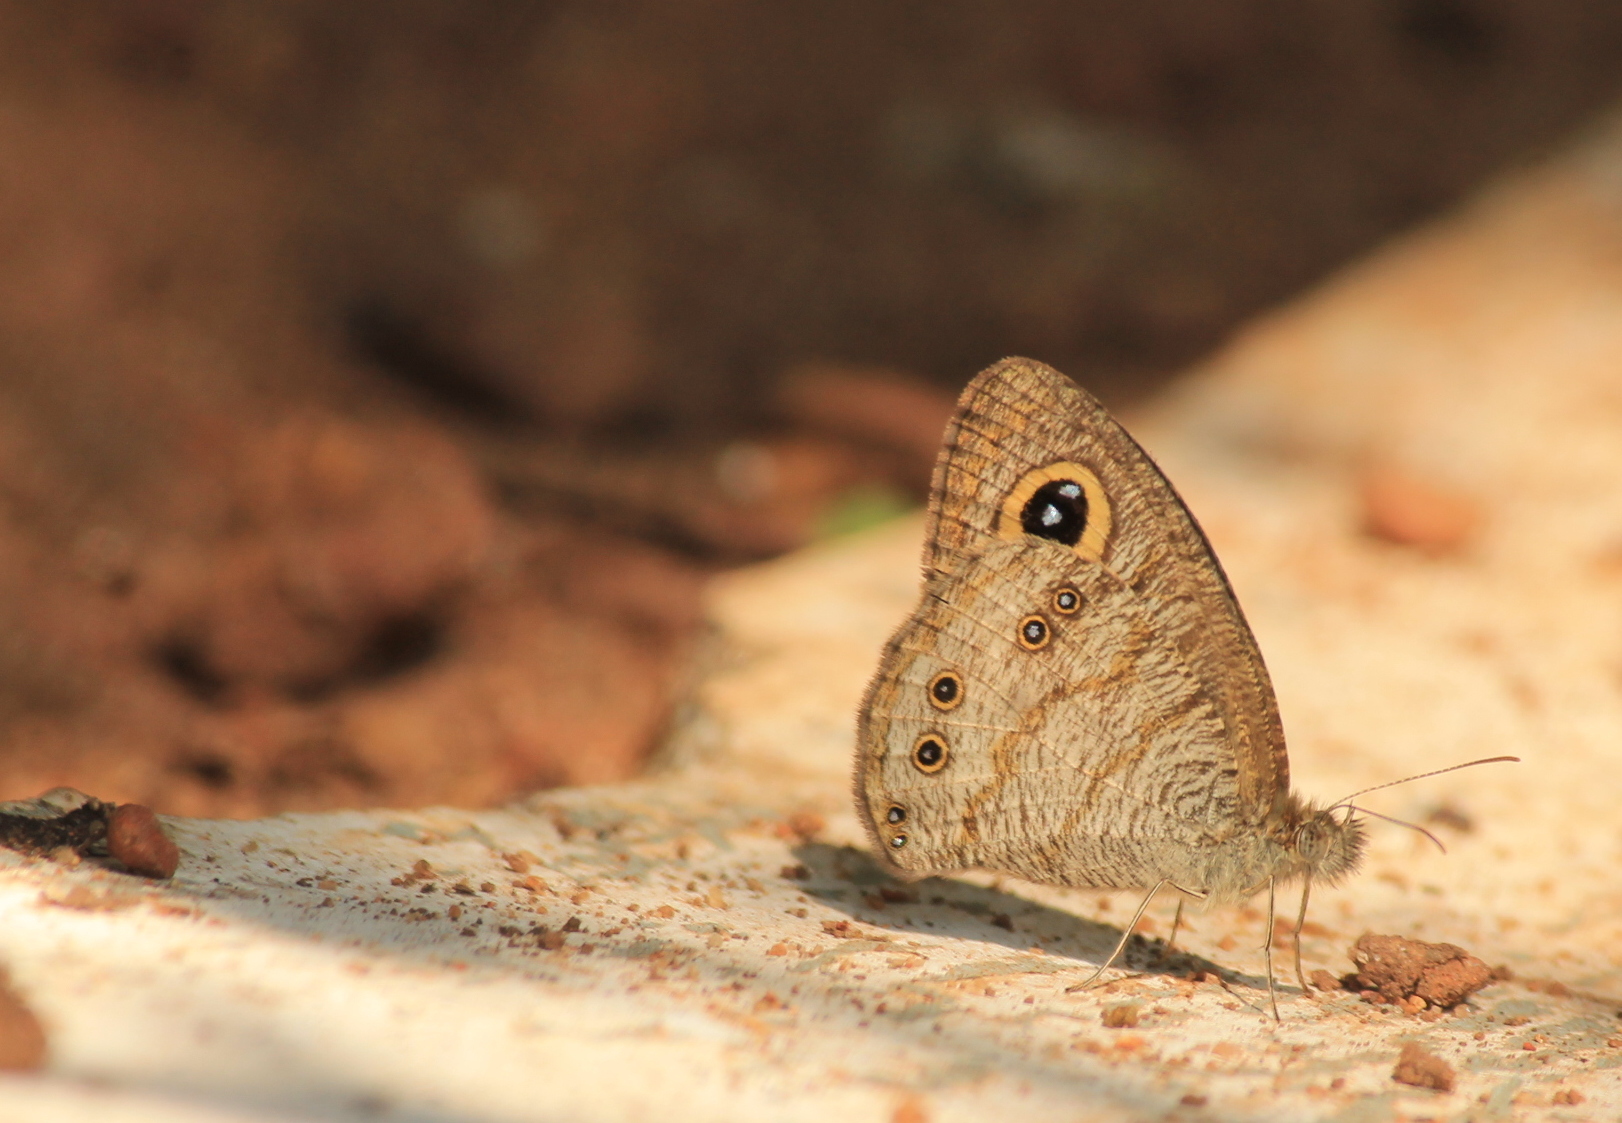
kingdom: Animalia
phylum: Arthropoda
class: Insecta
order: Lepidoptera
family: Nymphalidae
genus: Ypthima
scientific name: Ypthima baldus
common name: Common five-ring
